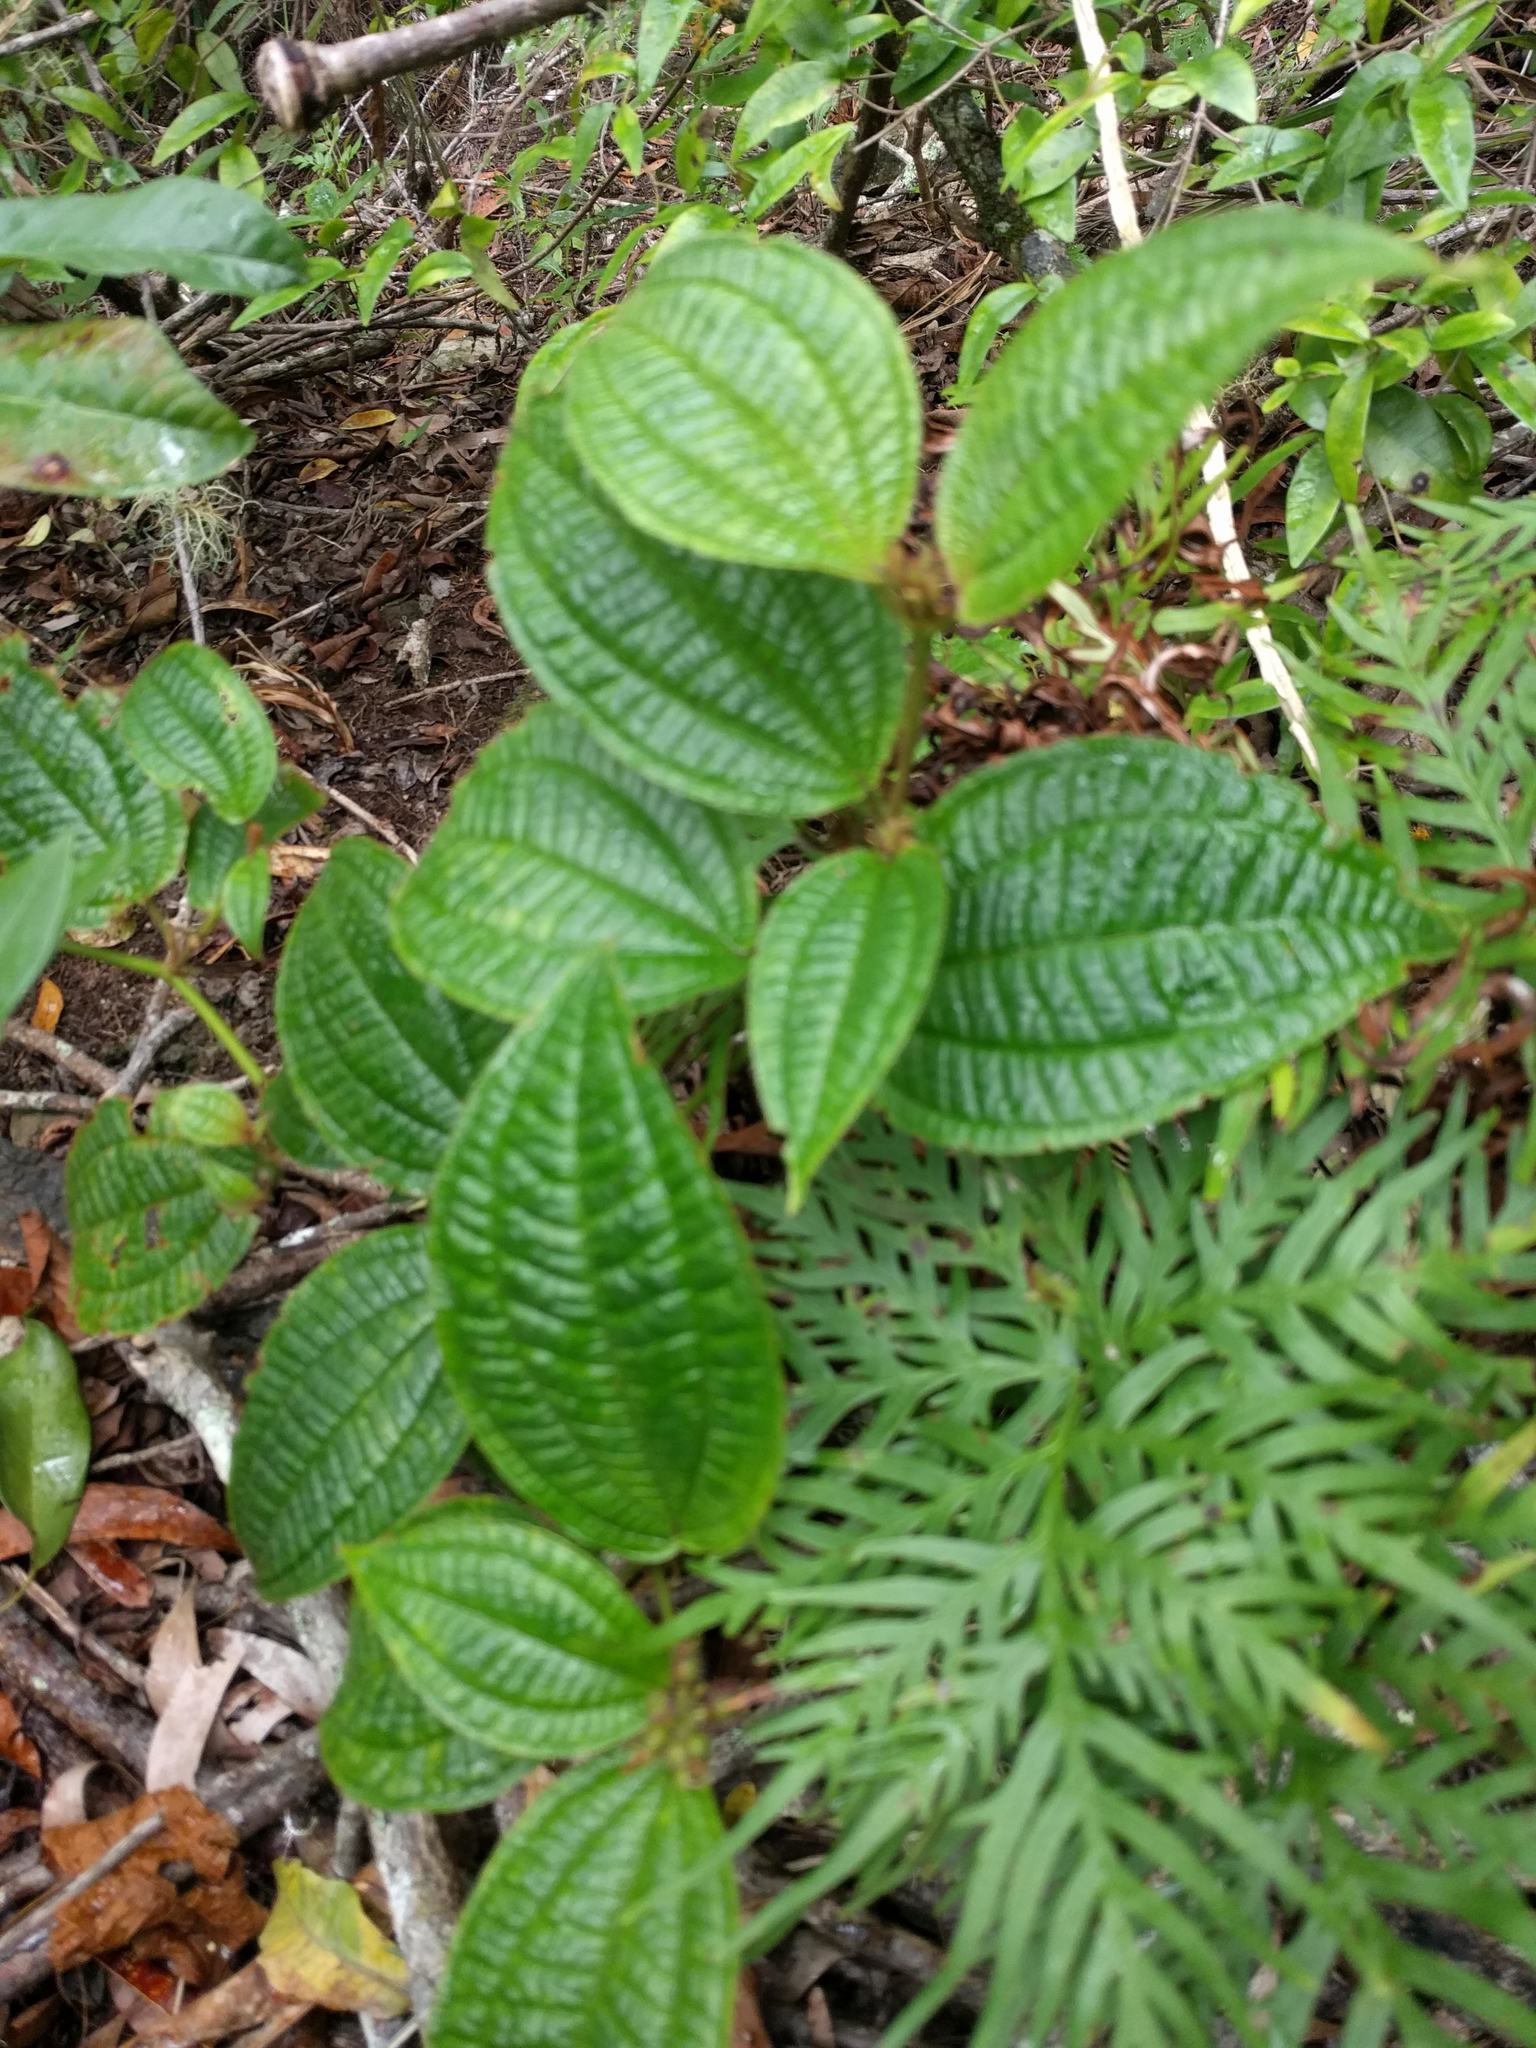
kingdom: Plantae
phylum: Tracheophyta
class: Magnoliopsida
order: Myrtales
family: Melastomataceae
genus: Miconia
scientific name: Miconia crenata
